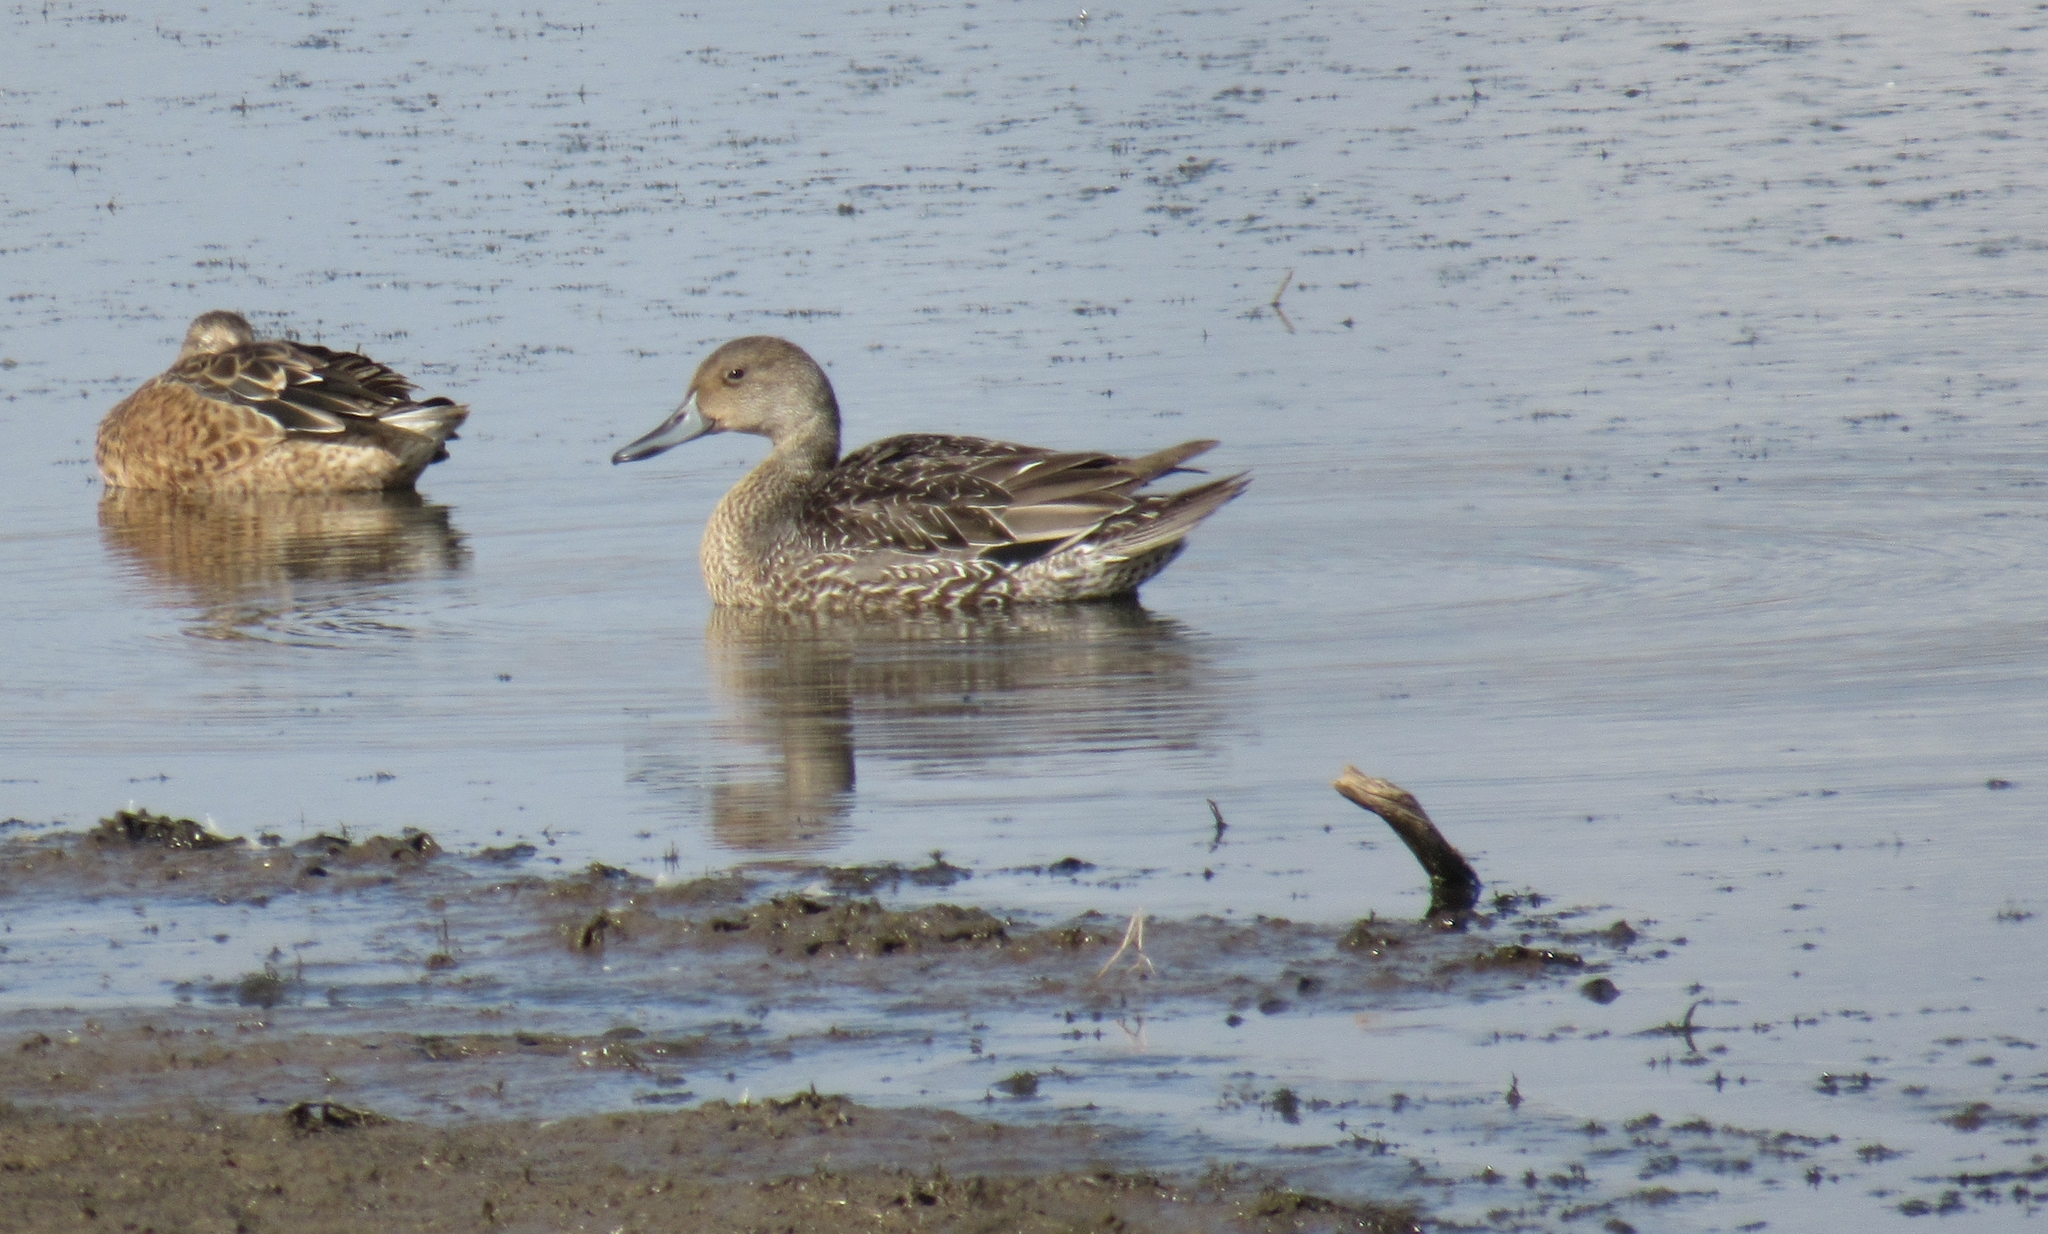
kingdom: Animalia
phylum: Chordata
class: Aves
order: Anseriformes
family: Anatidae
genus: Anas
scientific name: Anas acuta
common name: Northern pintail
